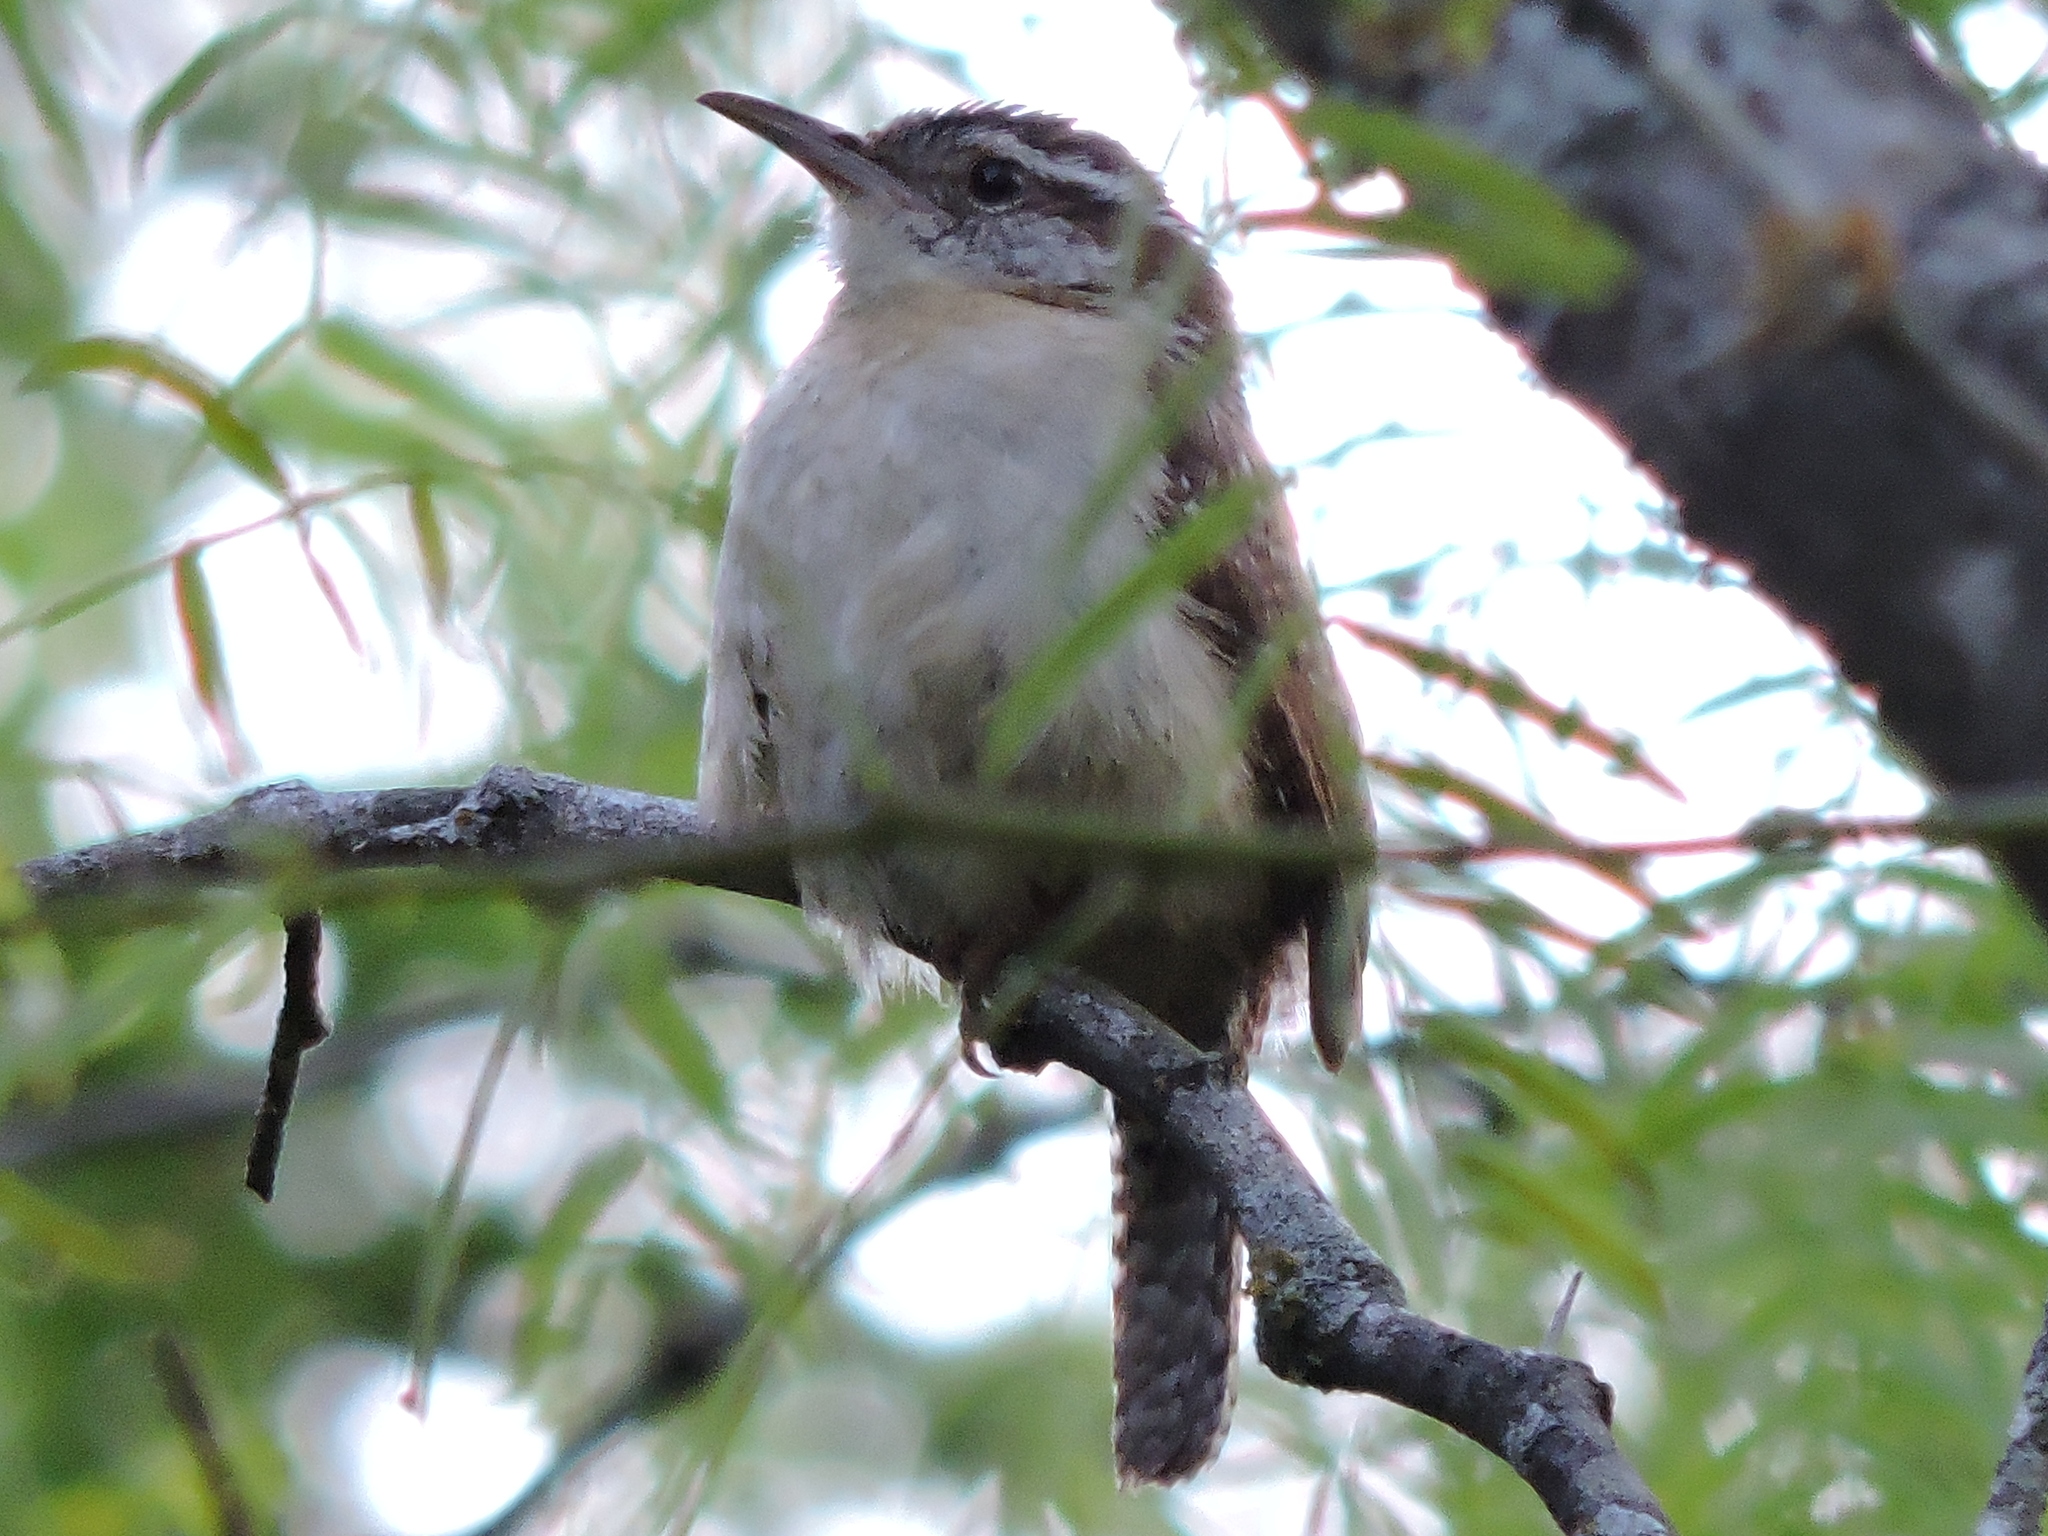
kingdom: Animalia
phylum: Chordata
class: Aves
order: Passeriformes
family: Troglodytidae
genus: Thryothorus
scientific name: Thryothorus ludovicianus
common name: Carolina wren
